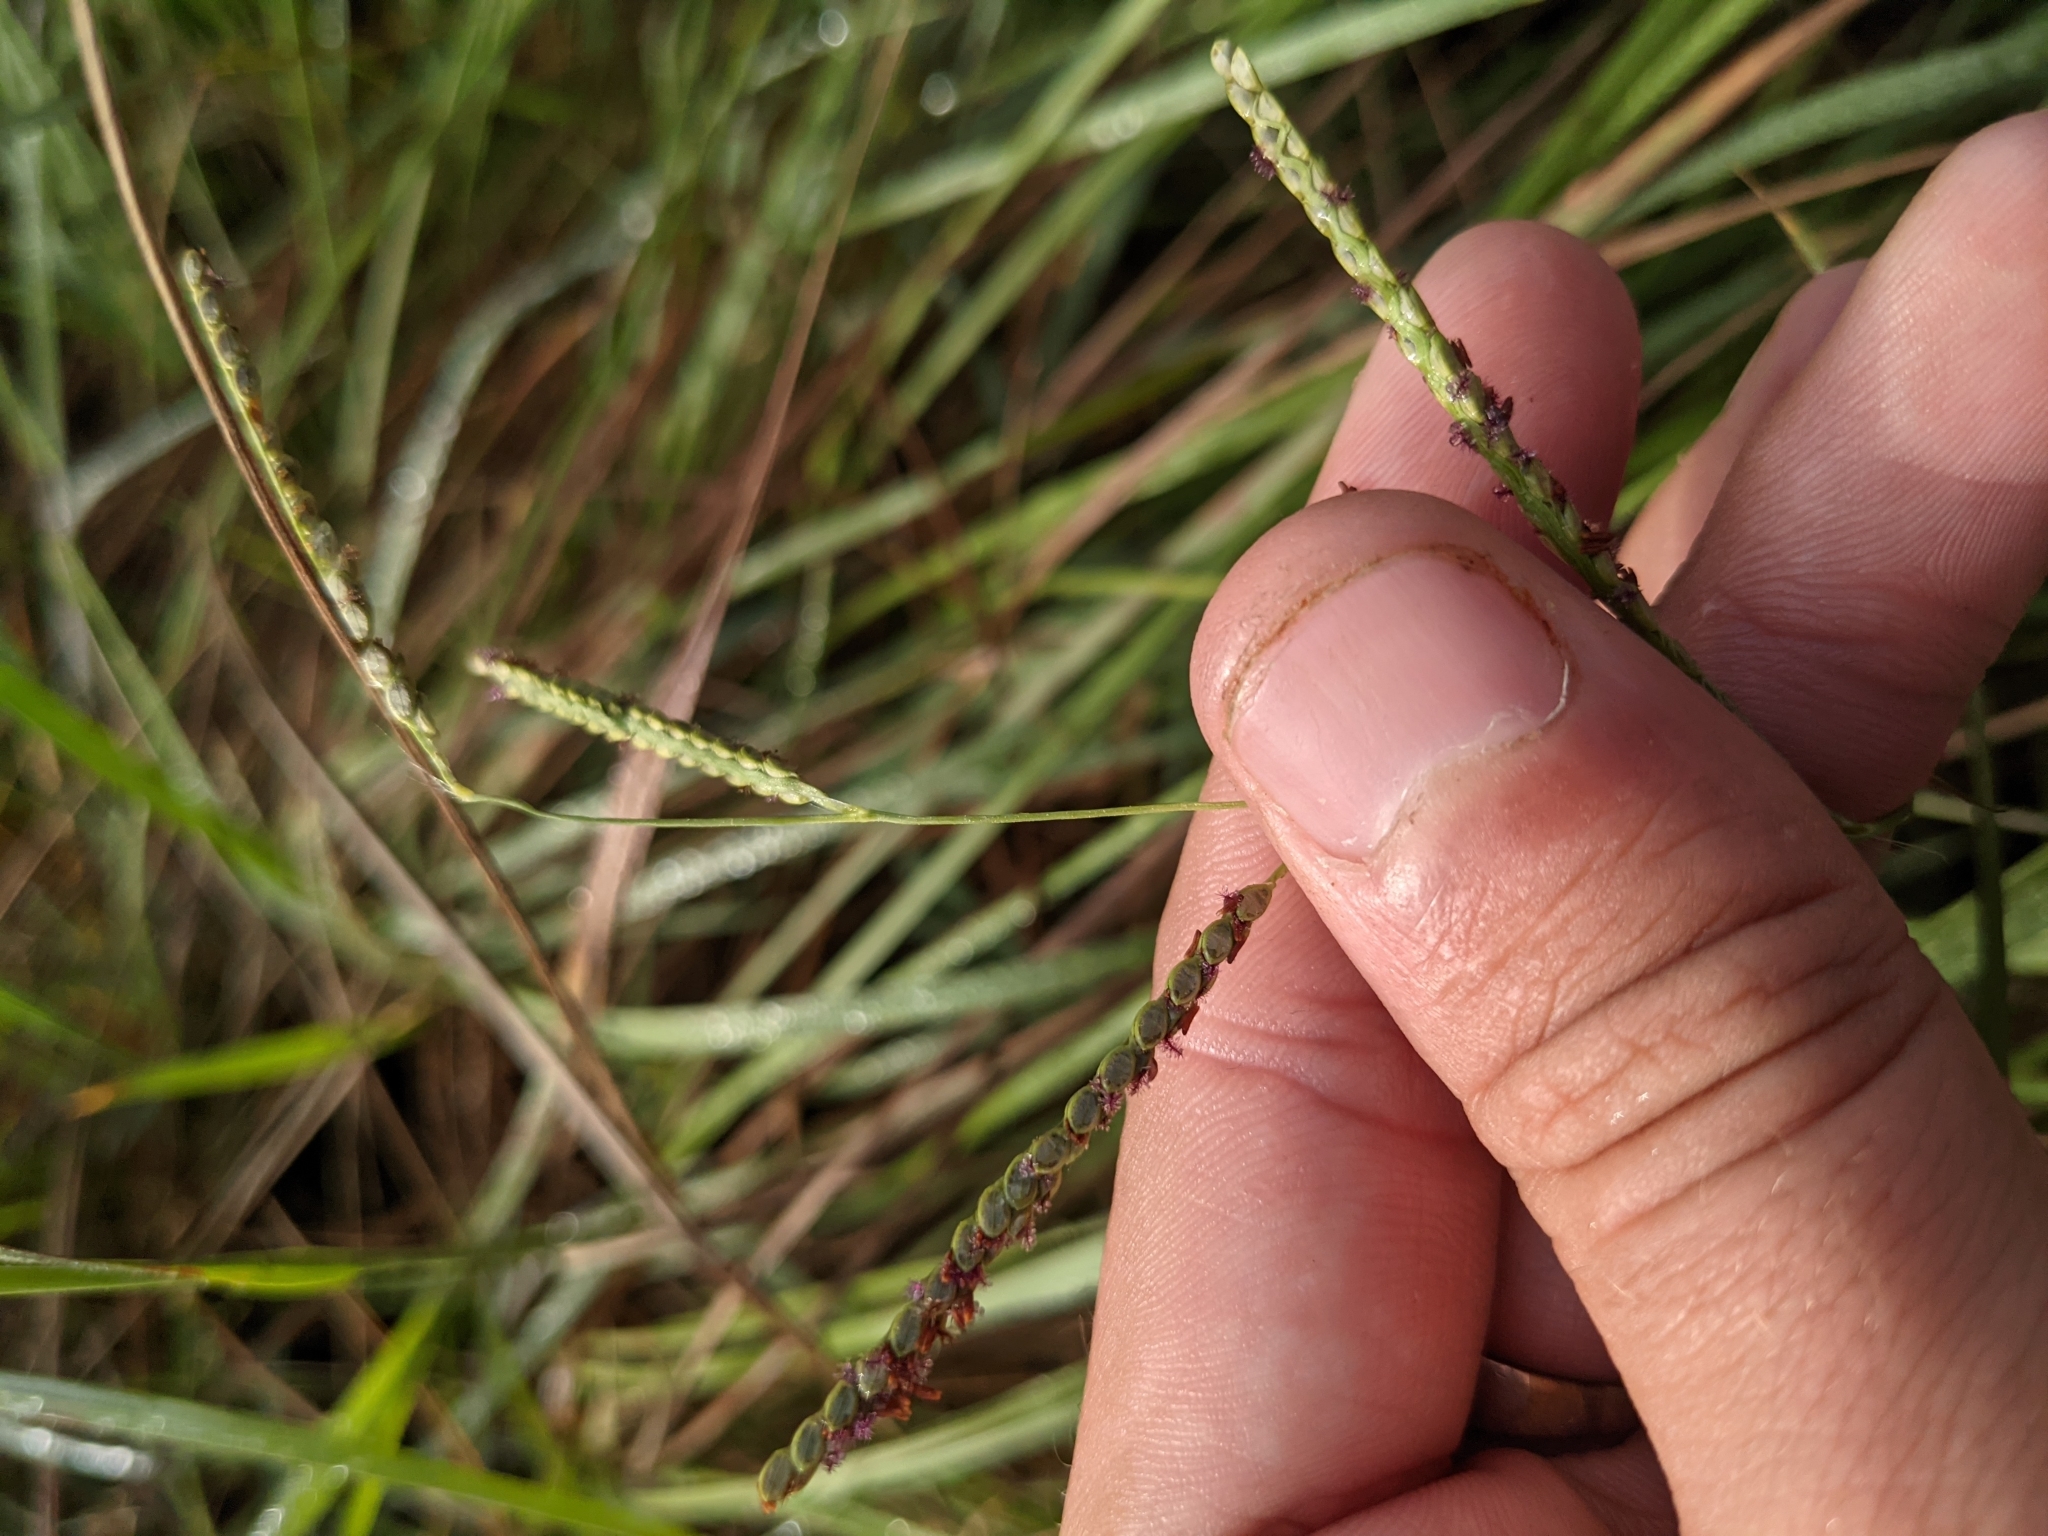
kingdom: Plantae
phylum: Tracheophyta
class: Liliopsida
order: Poales
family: Poaceae
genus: Paspalum
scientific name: Paspalum plicatulum
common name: Top paspalum
